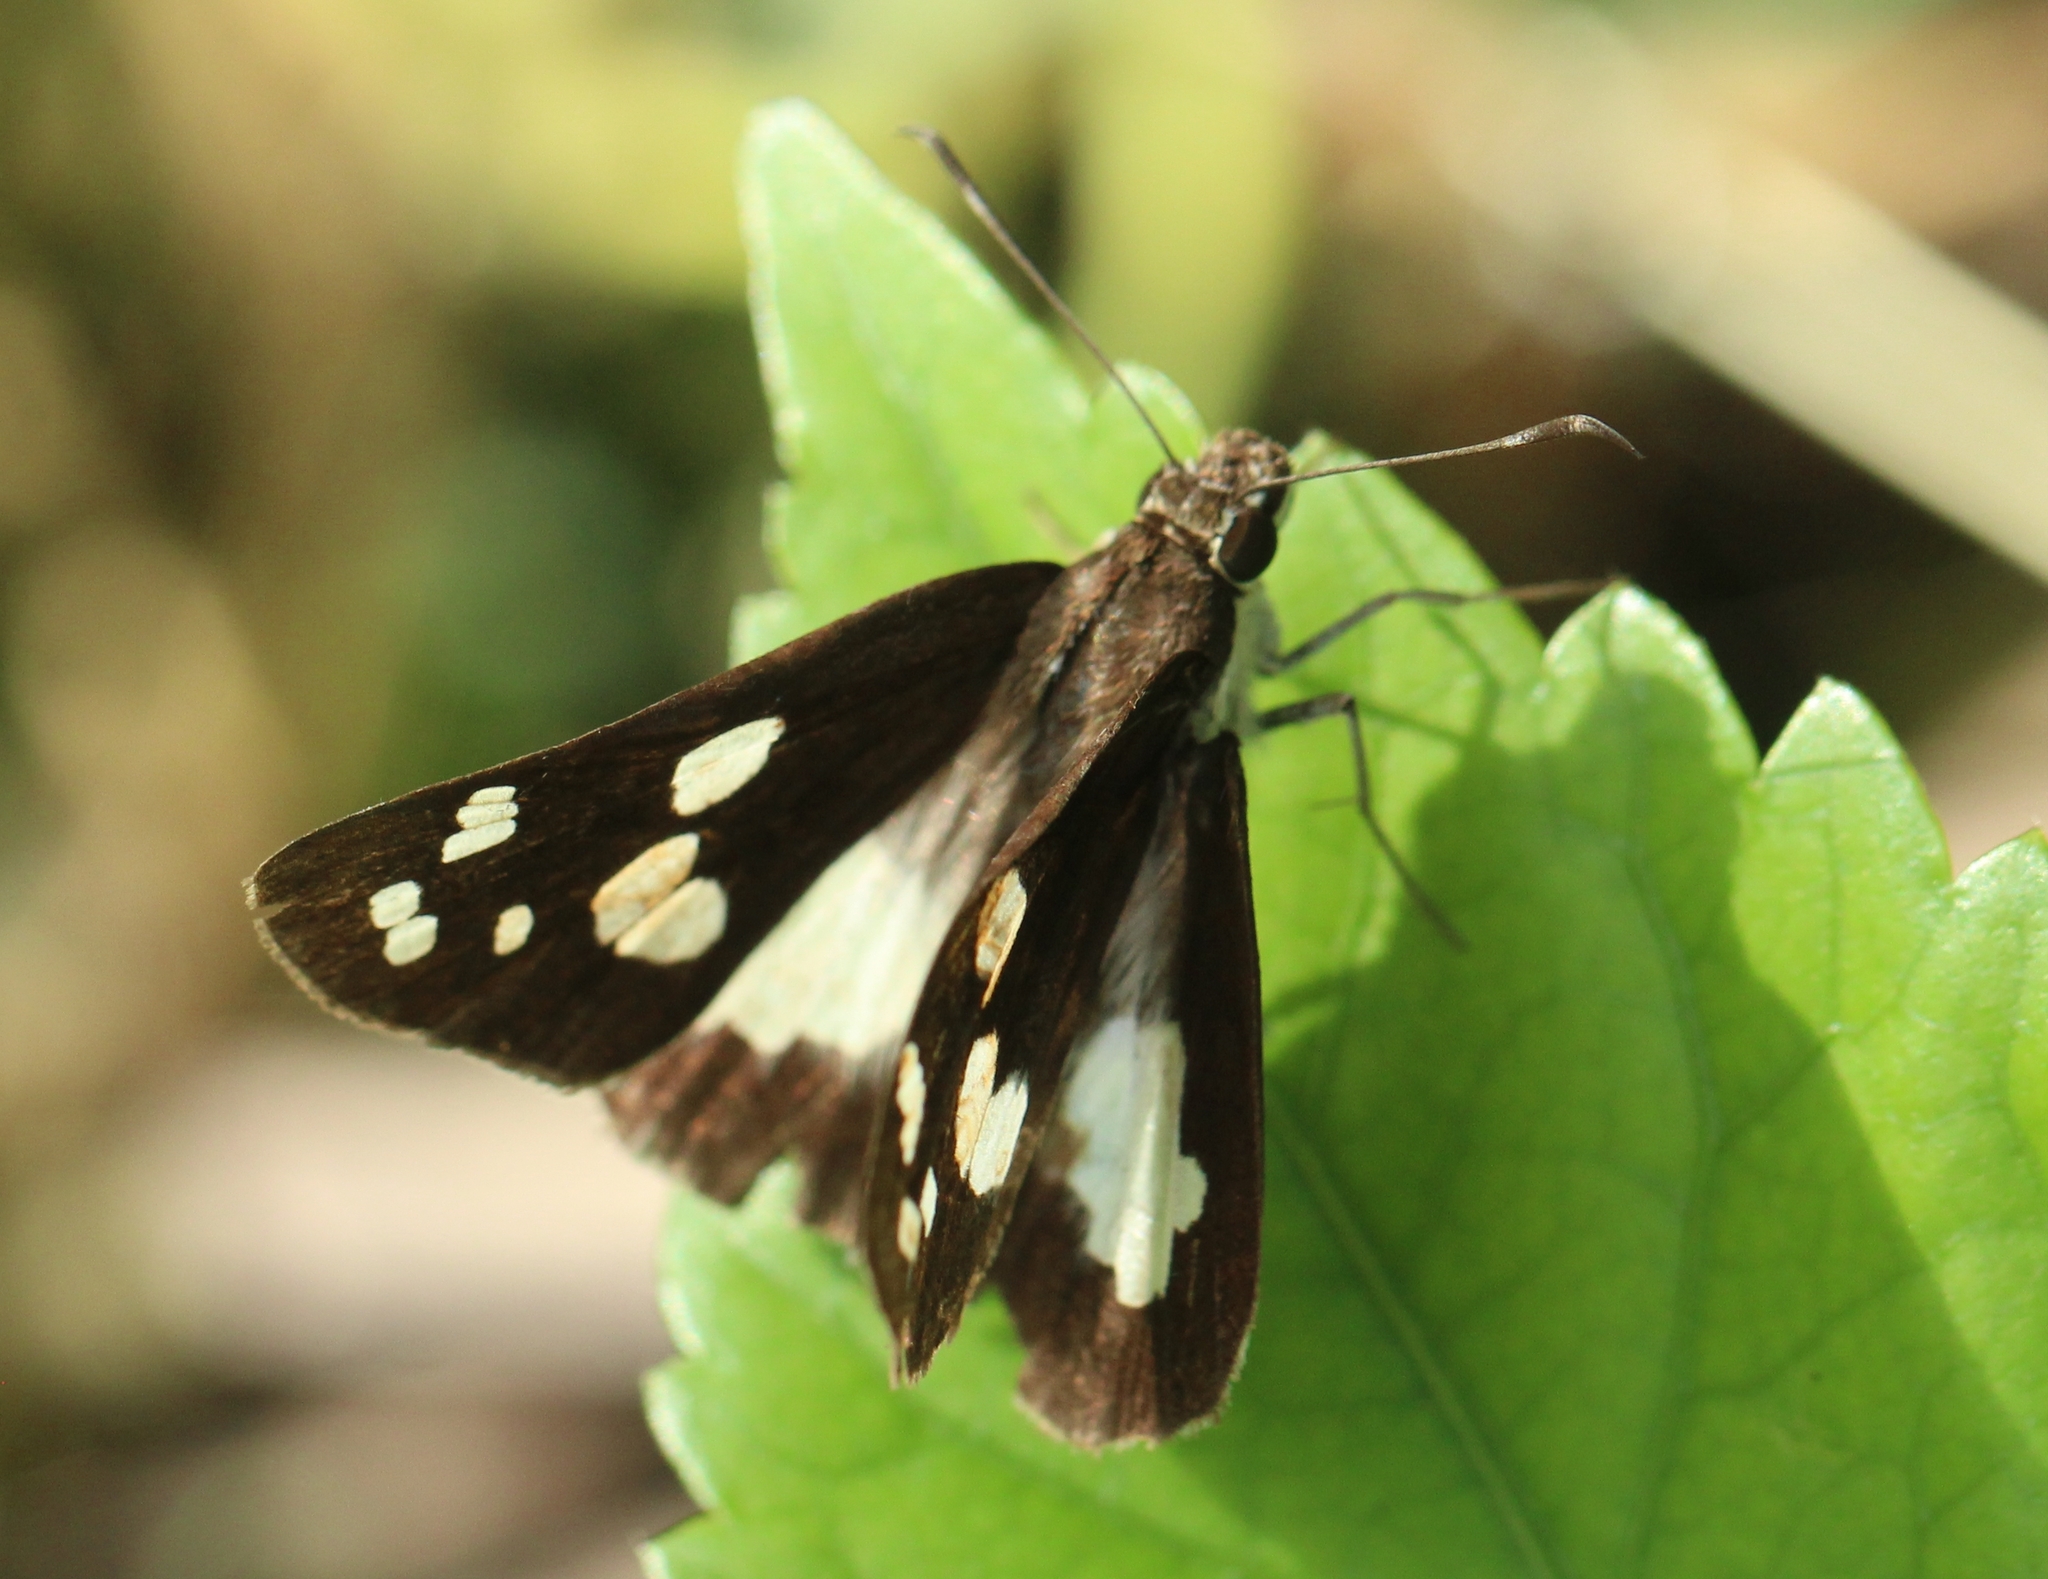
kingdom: Animalia
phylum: Arthropoda
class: Insecta
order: Lepidoptera
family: Hesperiidae
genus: Udaspes
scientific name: Udaspes folus
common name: Grass demon
